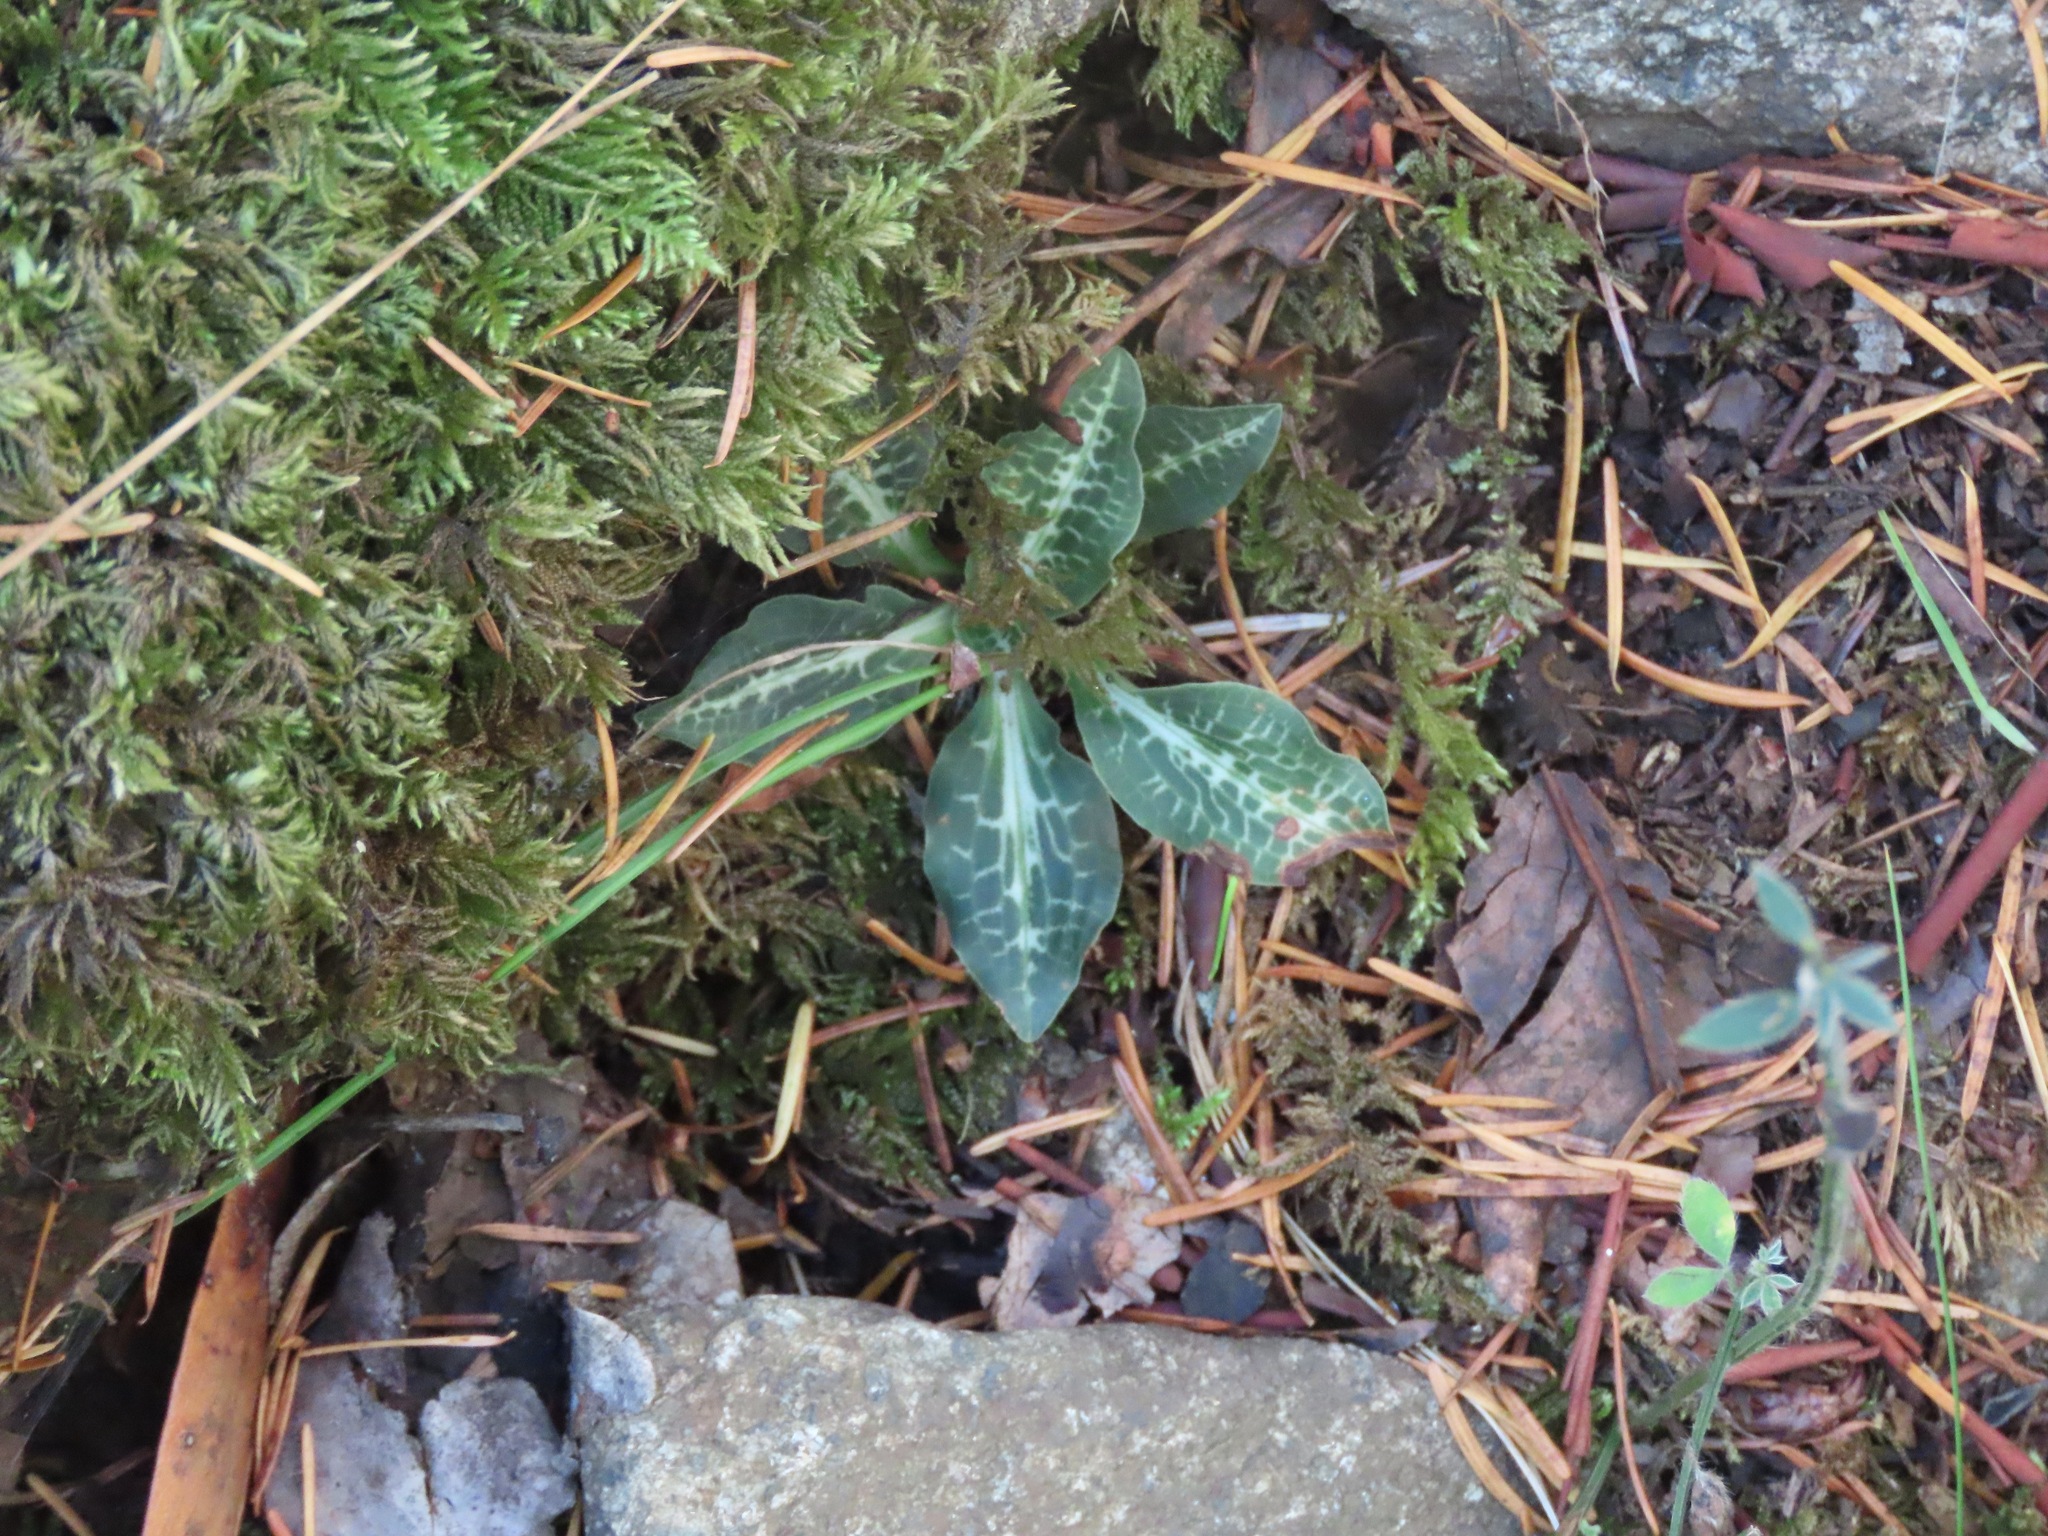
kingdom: Plantae
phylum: Tracheophyta
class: Liliopsida
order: Asparagales
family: Orchidaceae
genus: Goodyera
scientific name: Goodyera oblongifolia
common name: Giant rattlesnake-plantain
